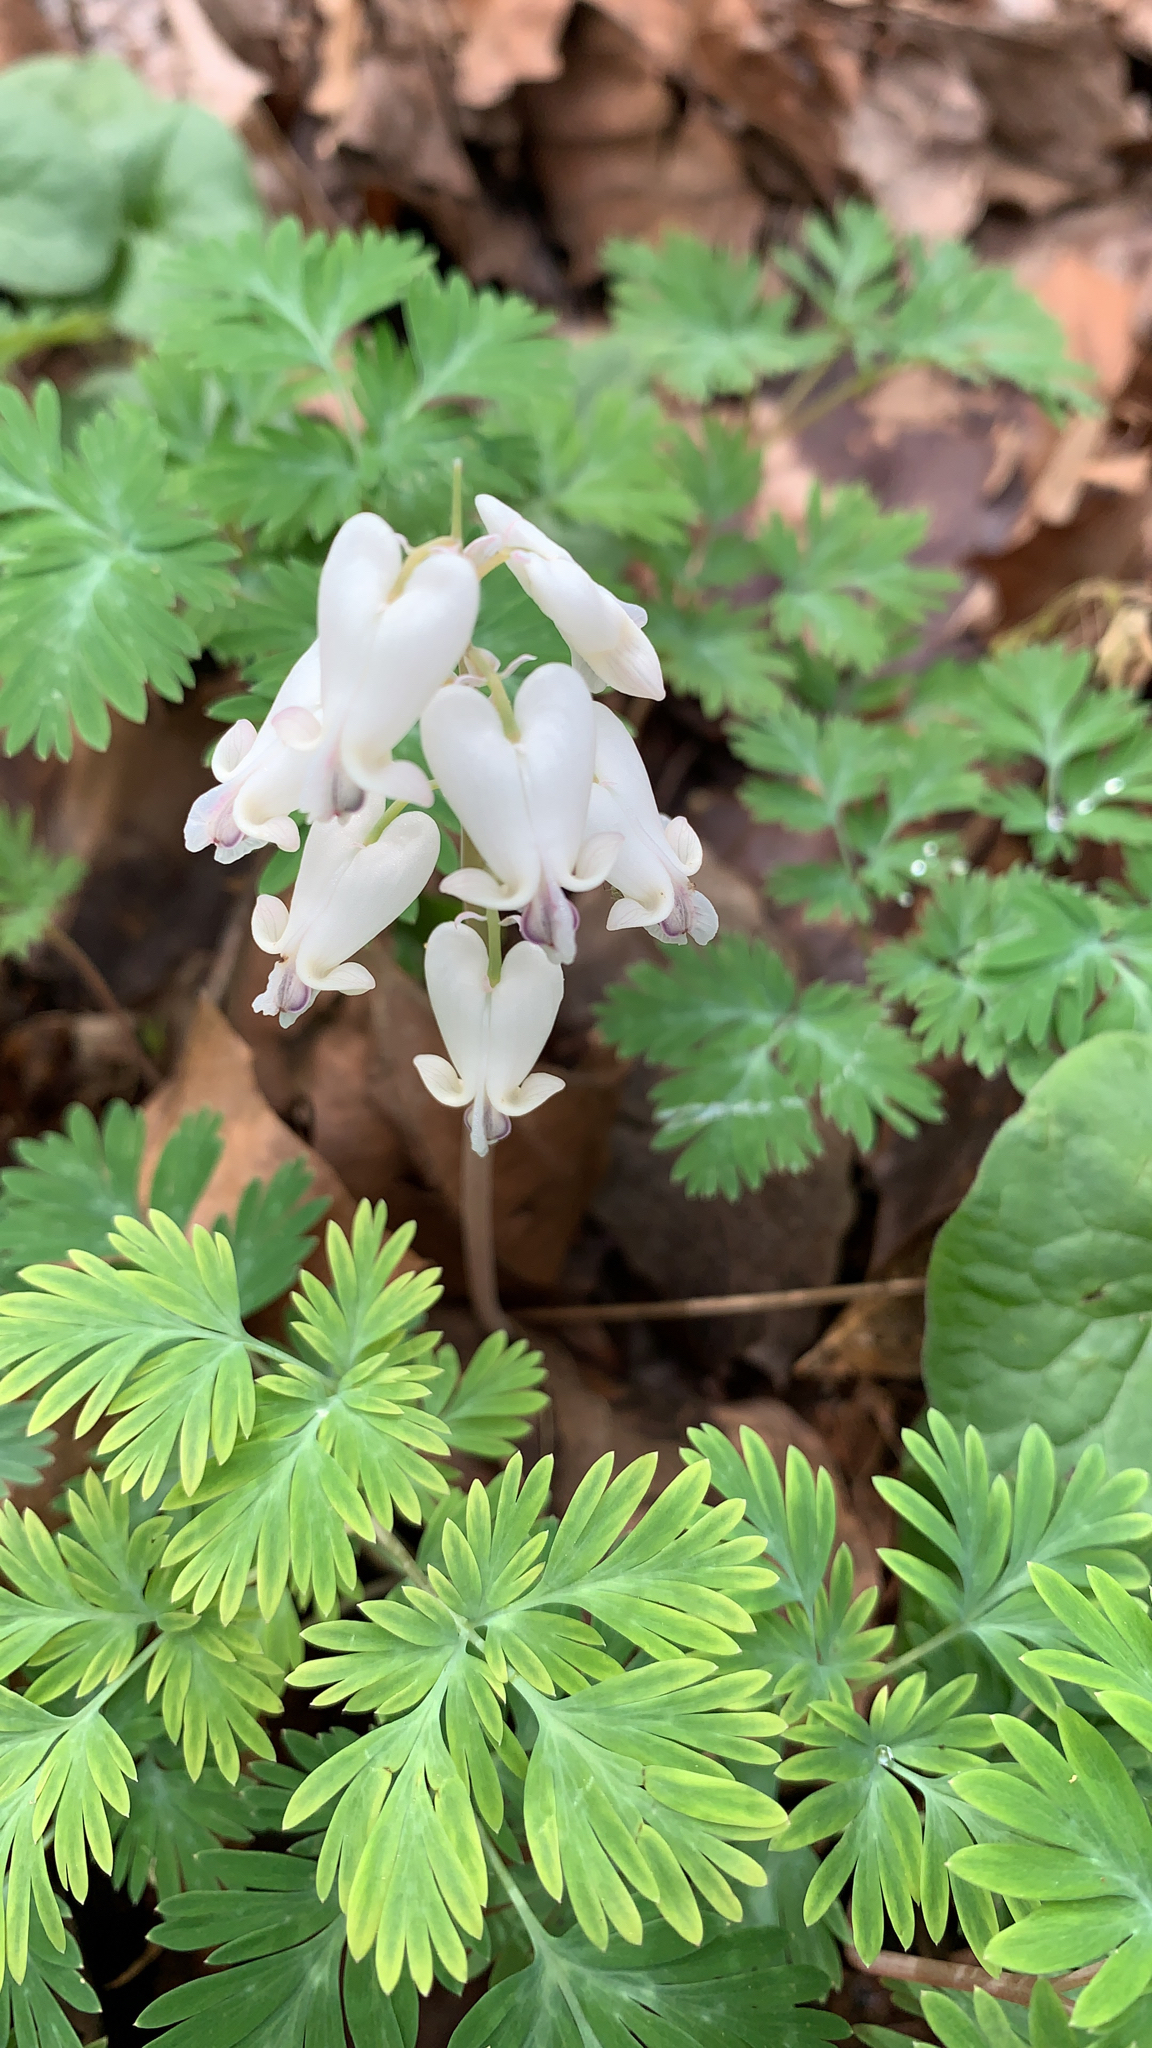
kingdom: Plantae
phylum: Tracheophyta
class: Magnoliopsida
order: Ranunculales
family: Papaveraceae
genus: Dicentra
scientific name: Dicentra canadensis
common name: Squirrel-corn
